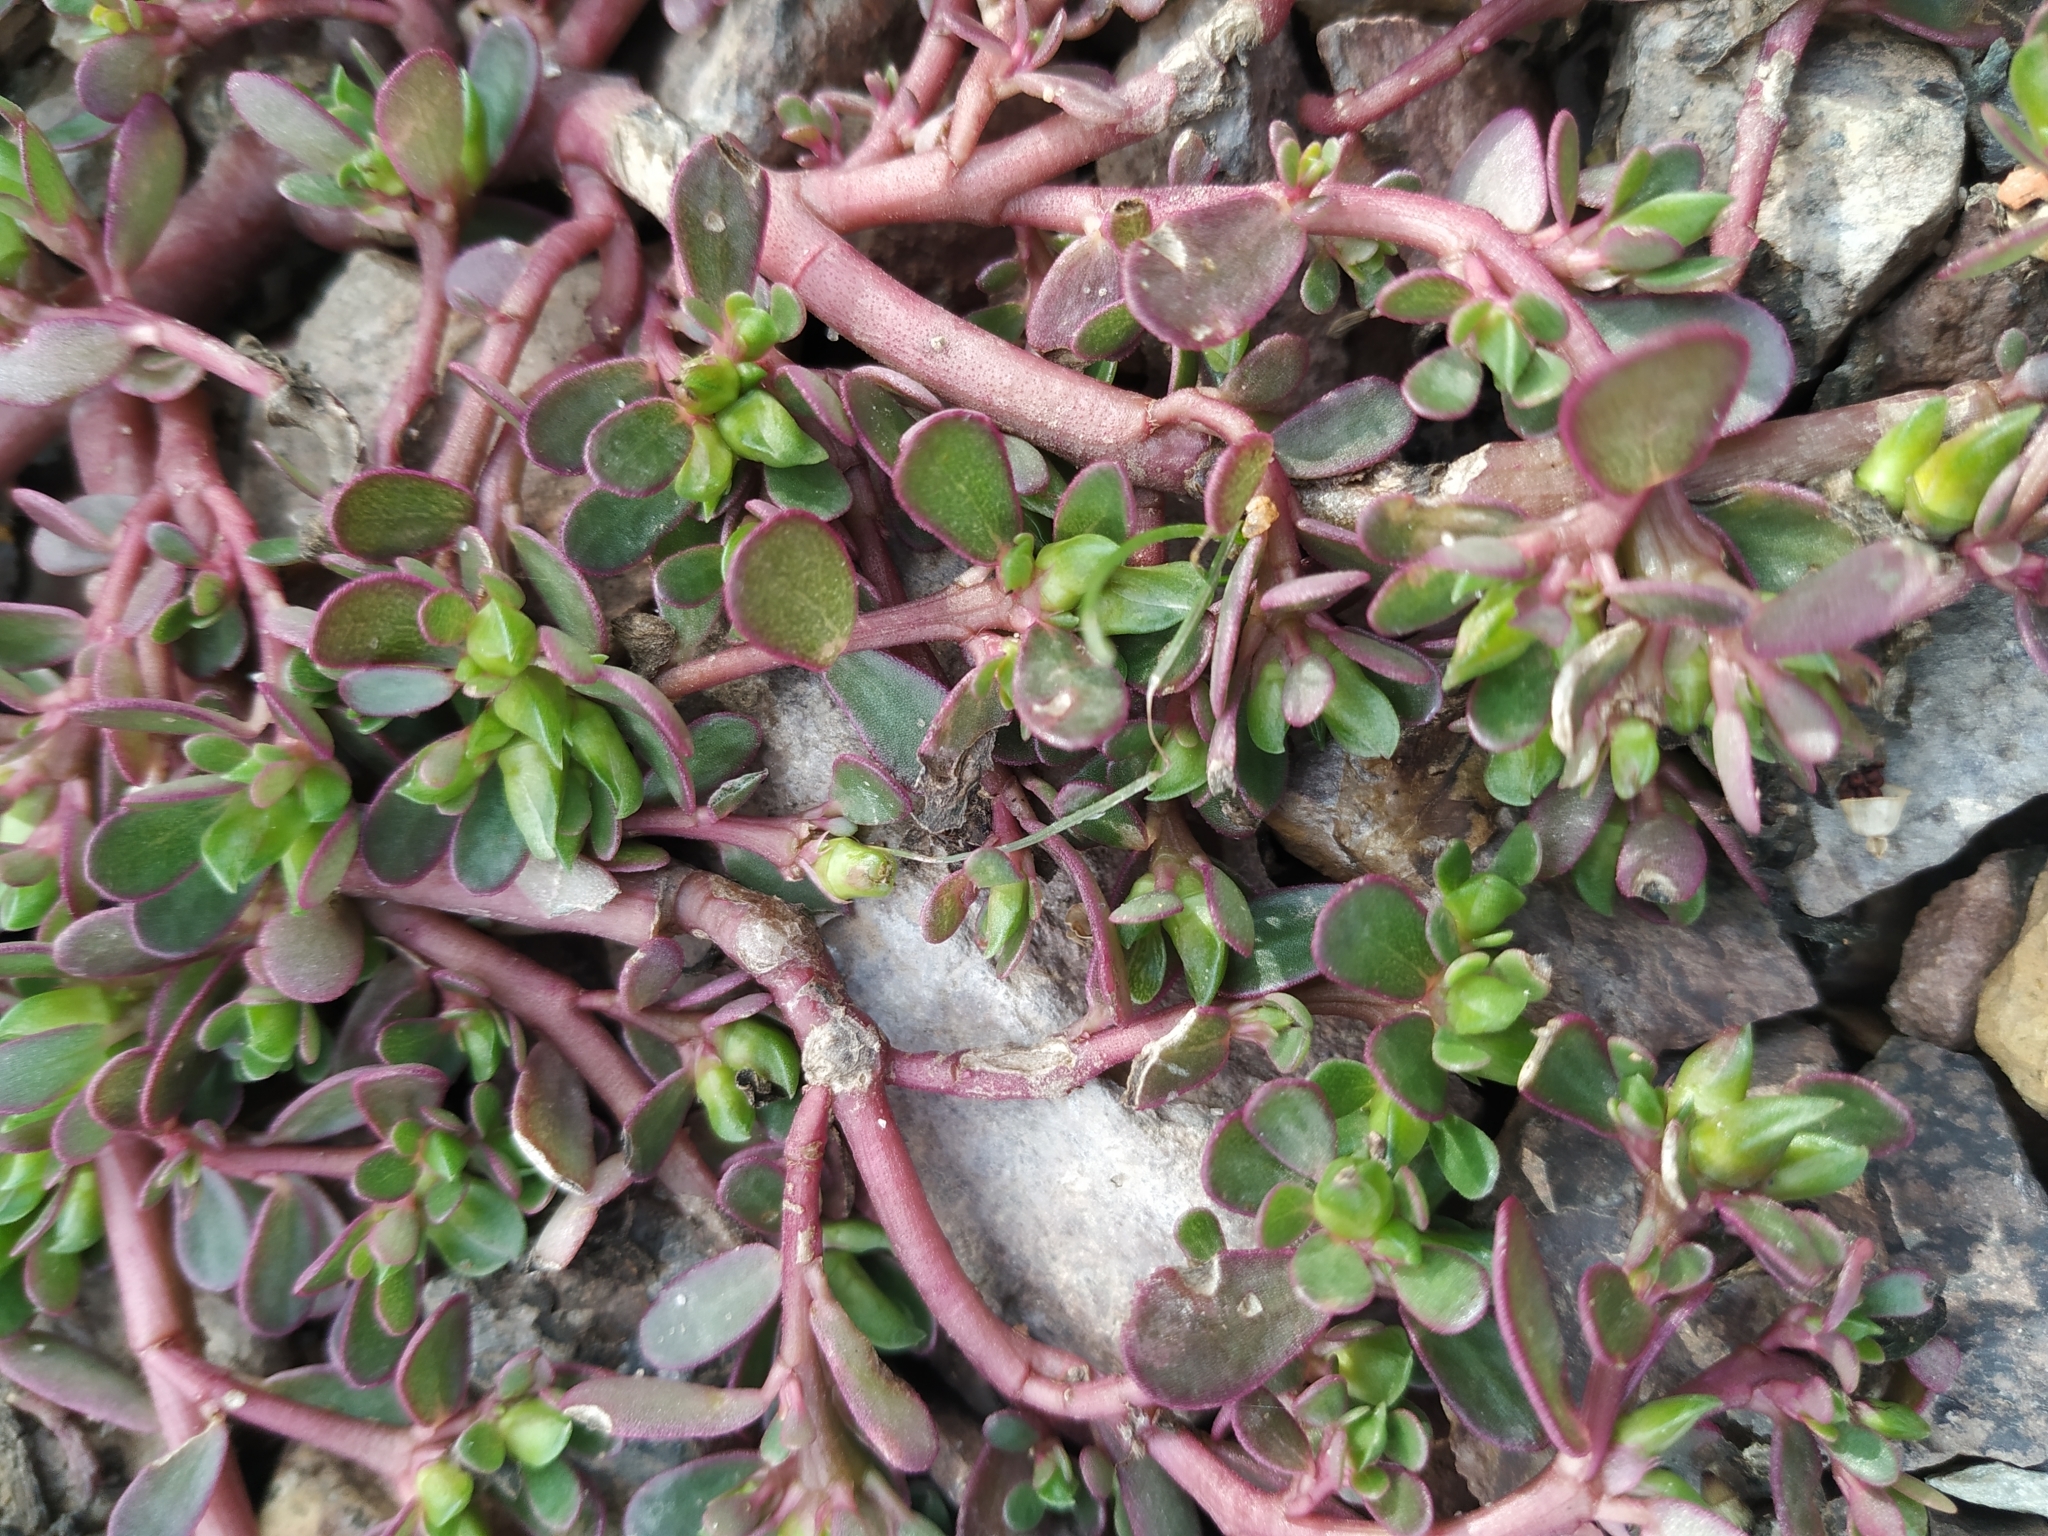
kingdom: Plantae
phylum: Tracheophyta
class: Magnoliopsida
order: Caryophyllales
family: Portulacaceae
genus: Portulaca
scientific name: Portulaca oleracea
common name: Common purslane
